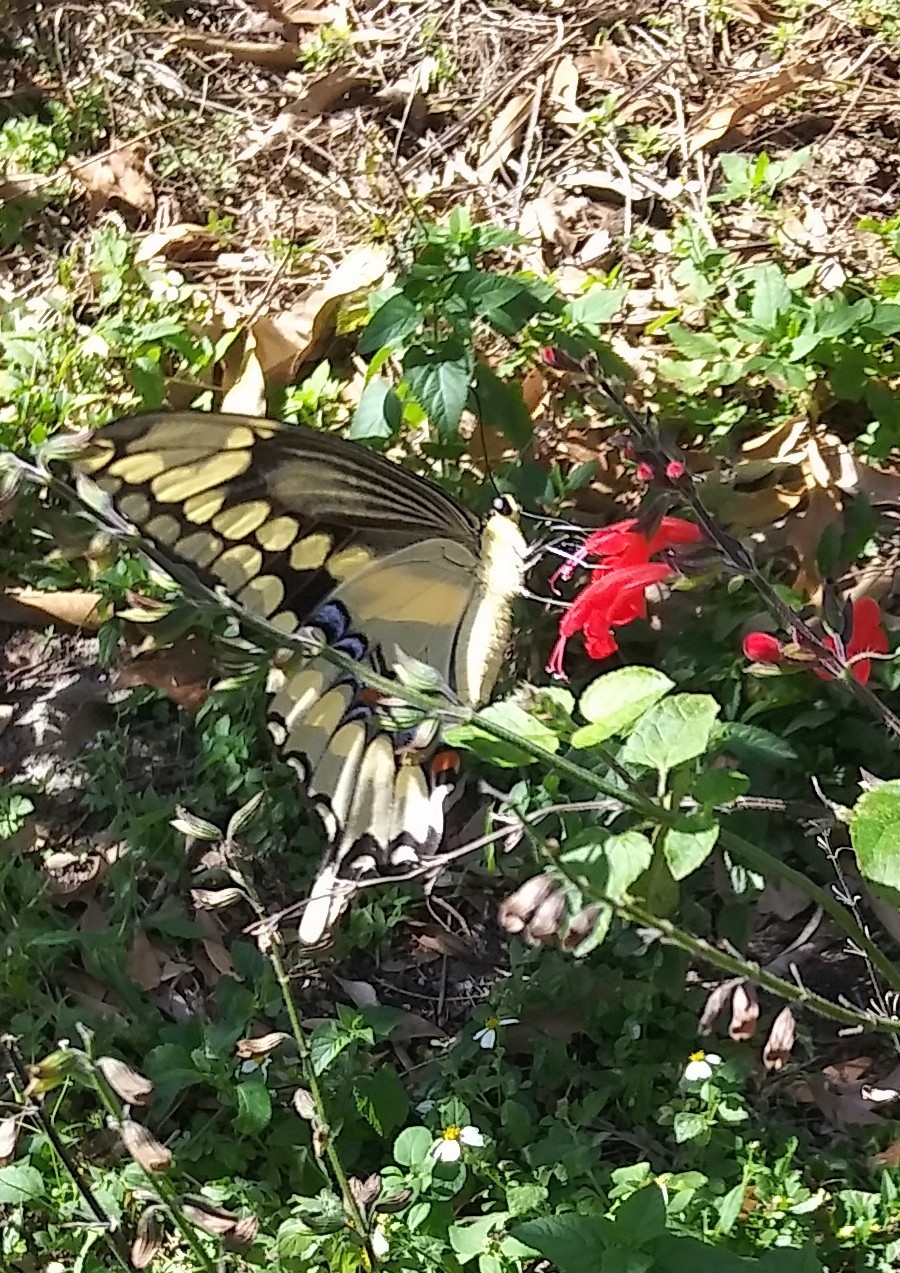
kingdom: Animalia
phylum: Arthropoda
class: Insecta
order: Lepidoptera
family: Papilionidae
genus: Papilio
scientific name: Papilio cresphontes
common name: Giant swallowtail
